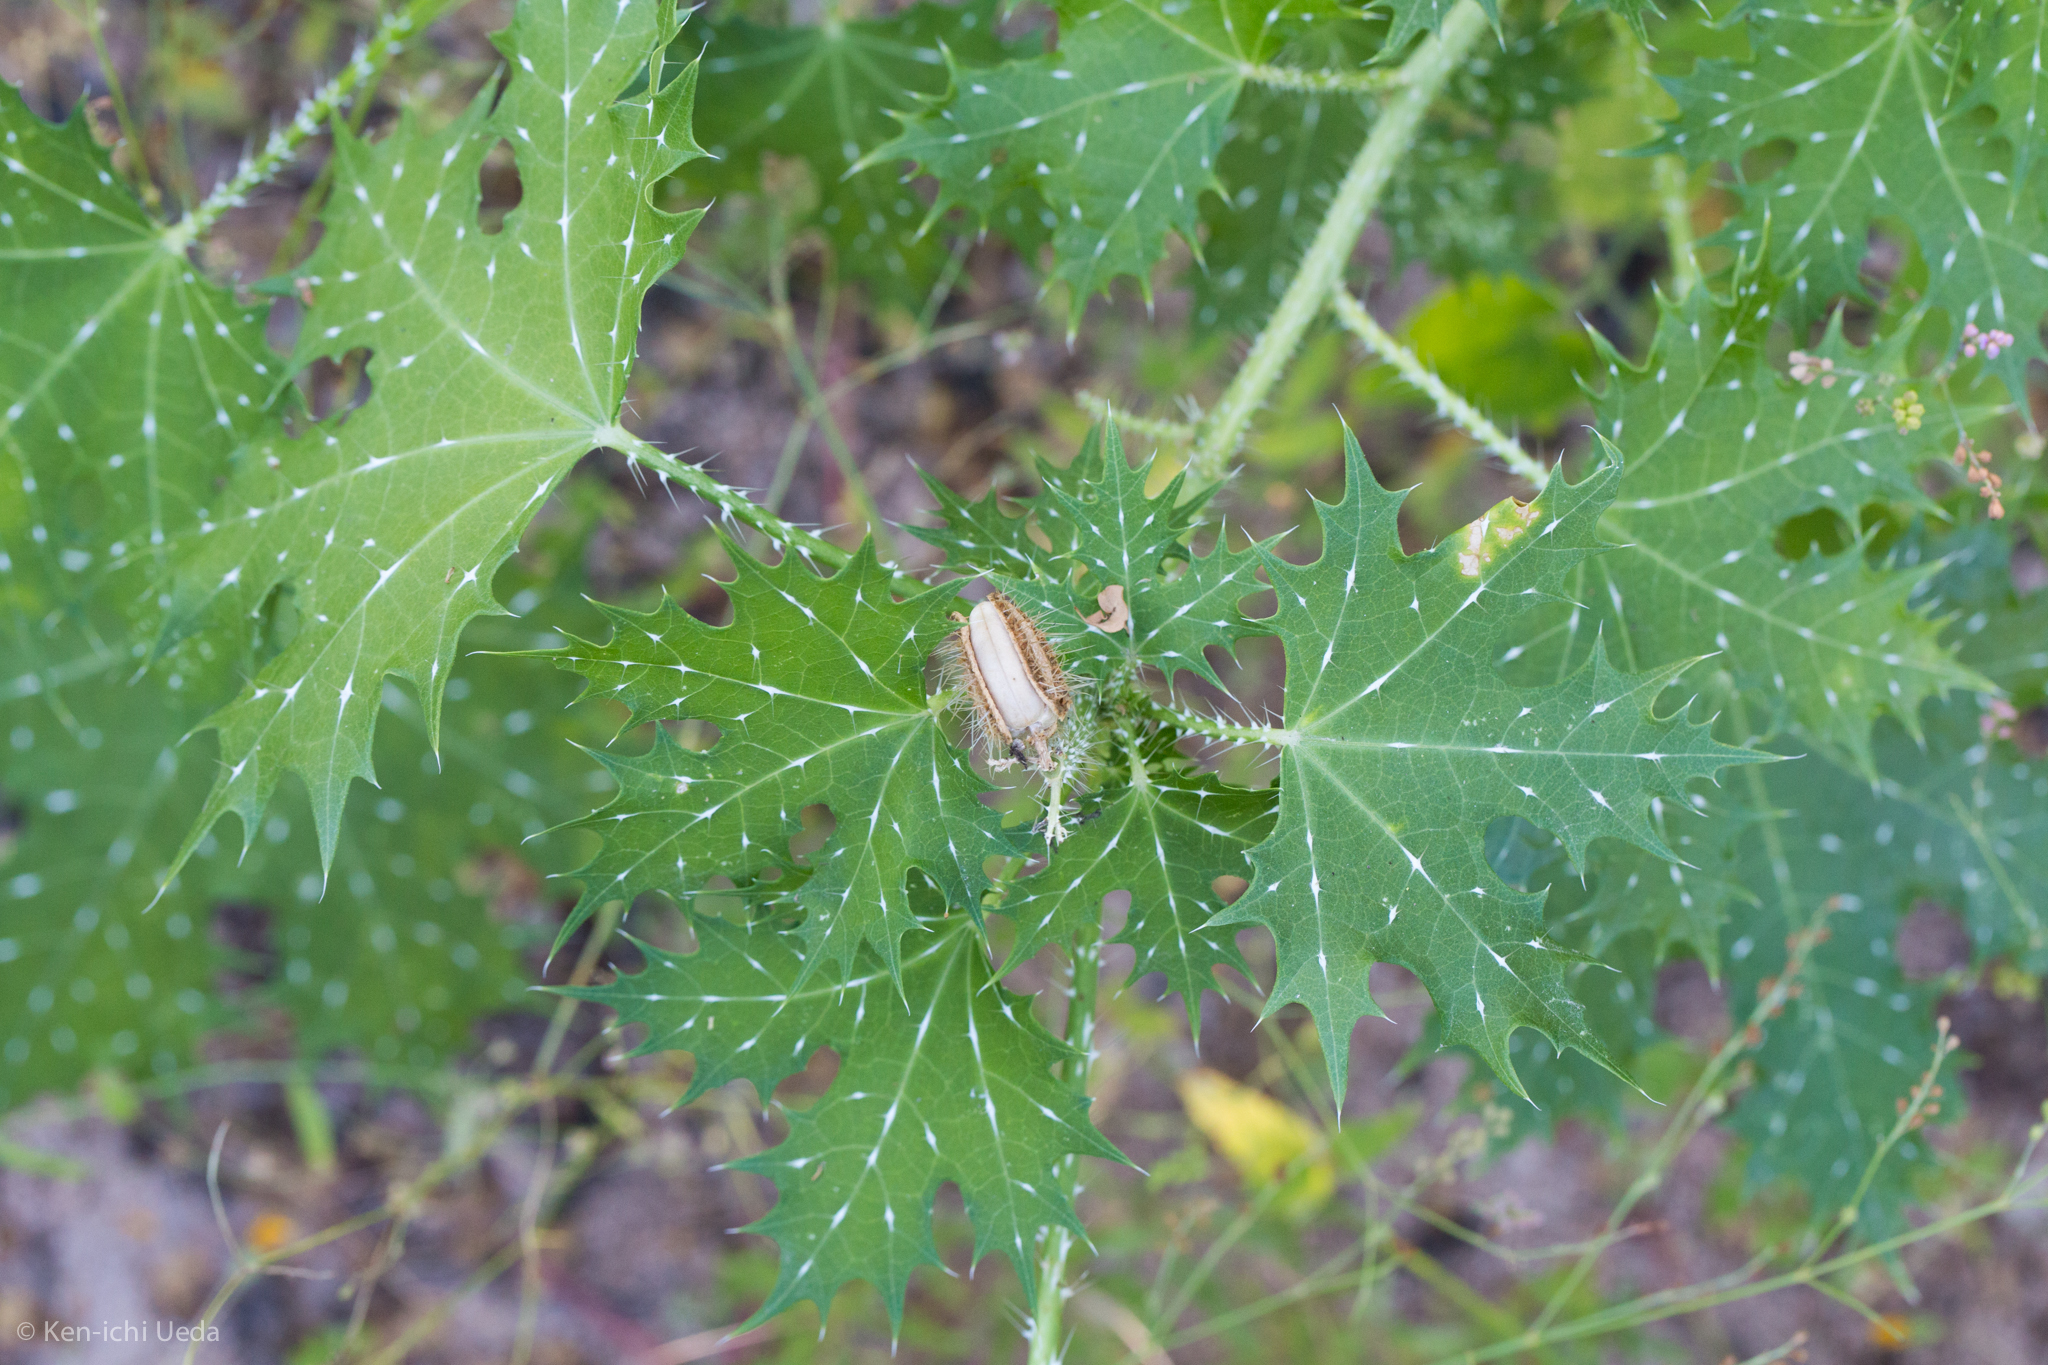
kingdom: Plantae
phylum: Tracheophyta
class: Magnoliopsida
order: Malpighiales
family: Euphorbiaceae
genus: Cnidoscolus
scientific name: Cnidoscolus maculatus
